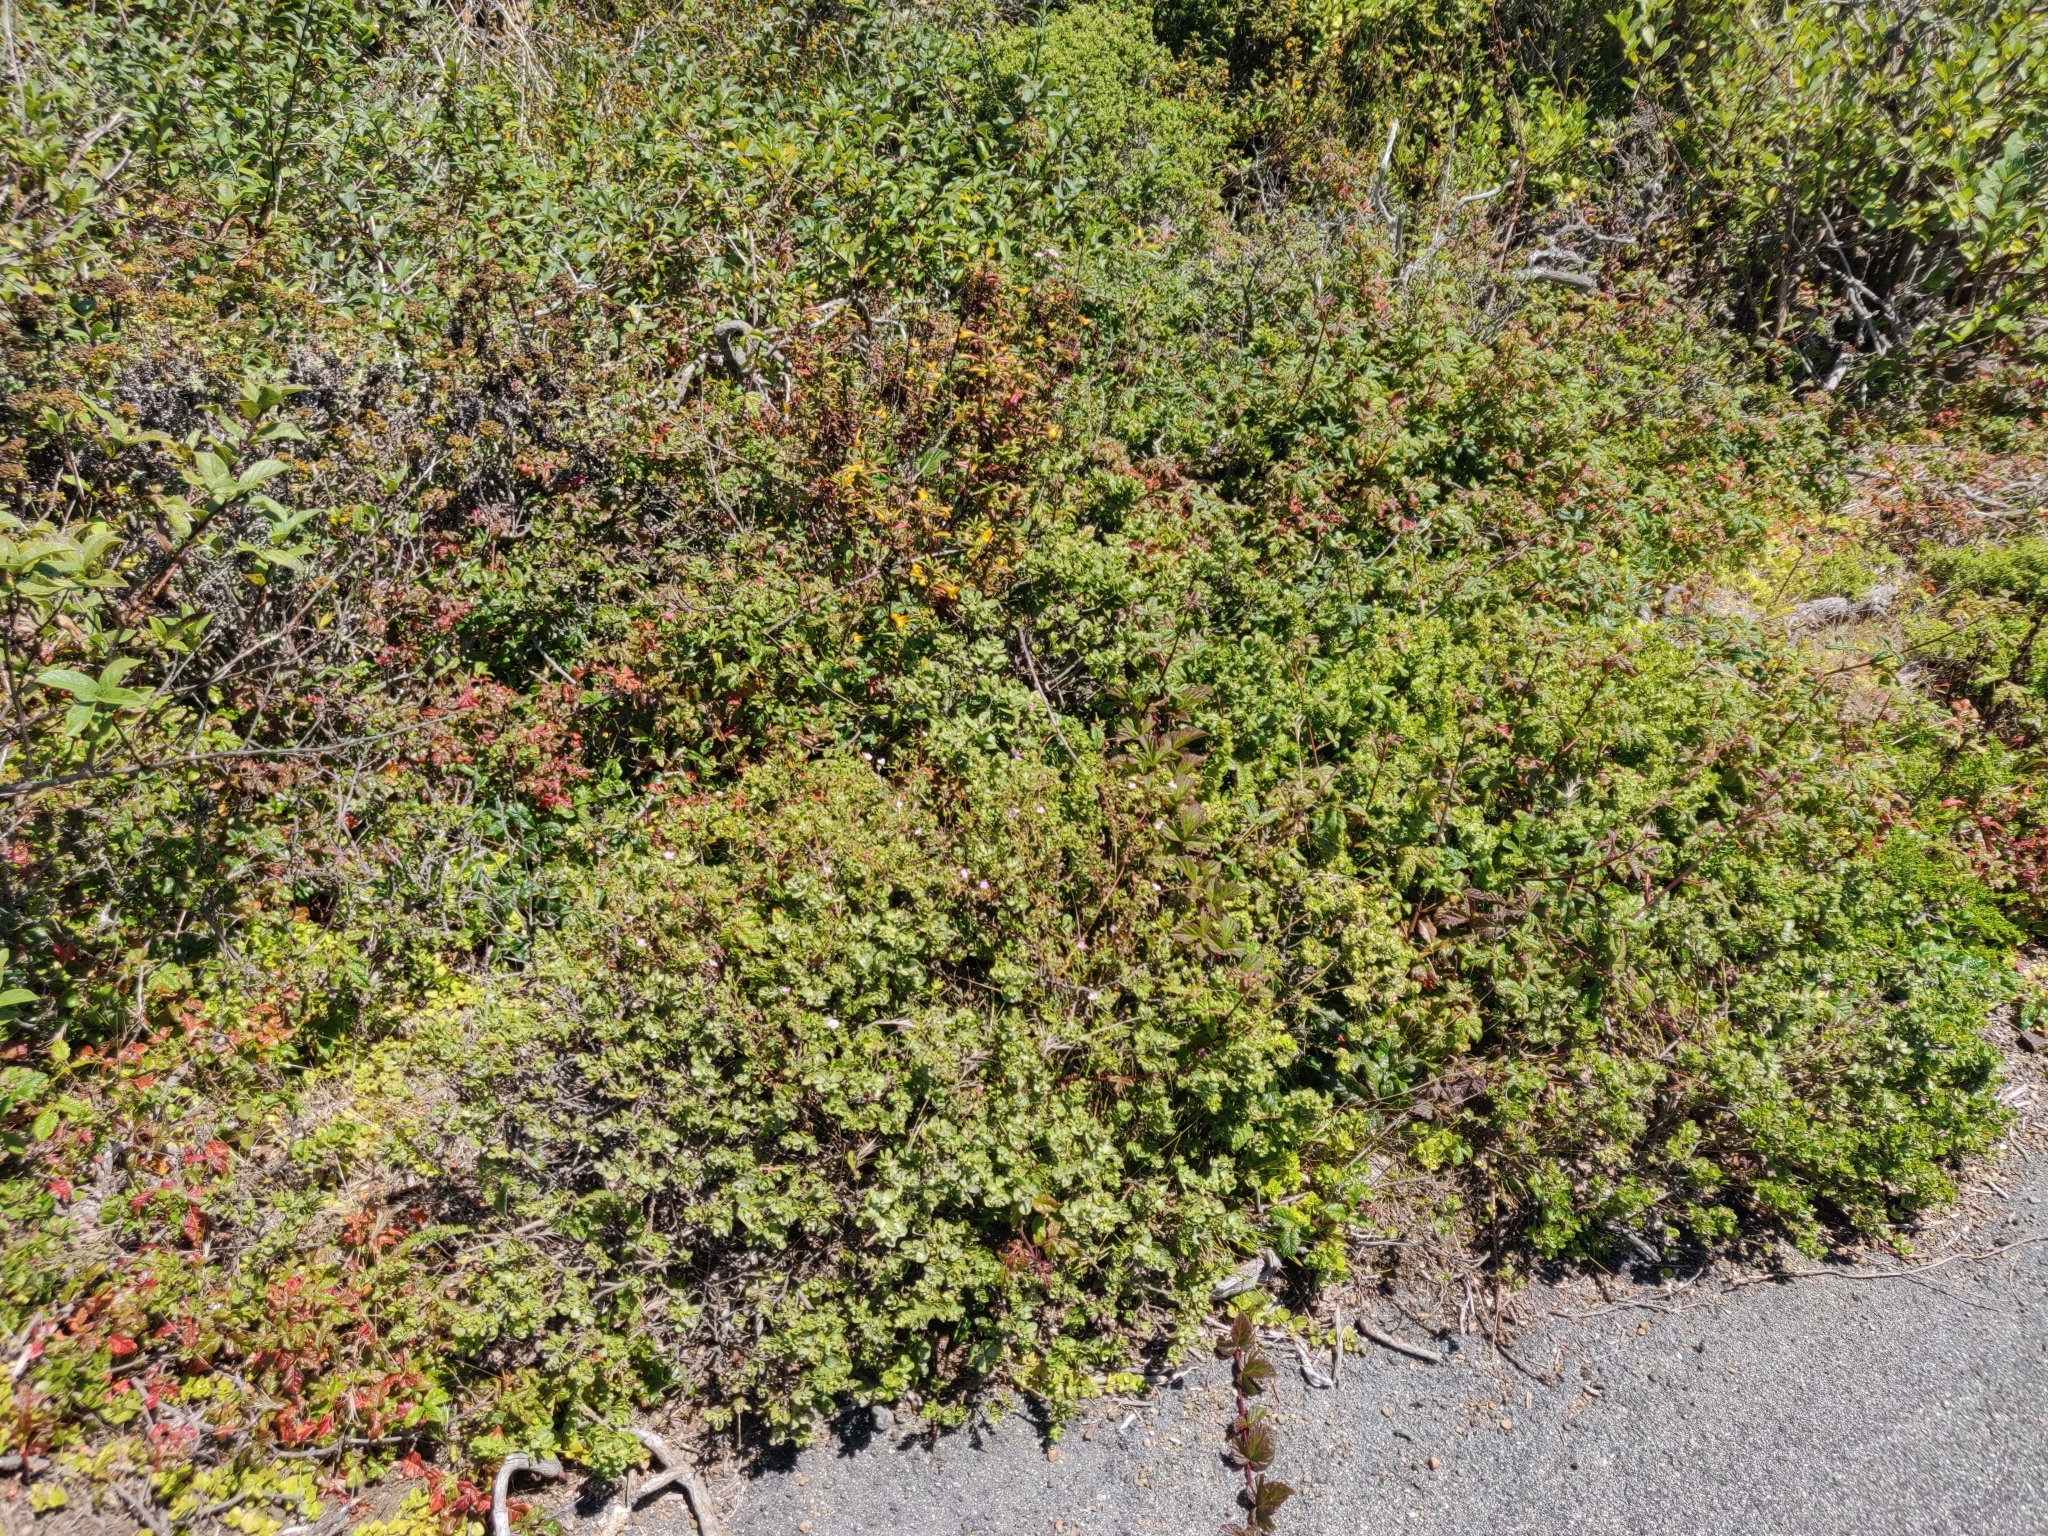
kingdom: Plantae
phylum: Tracheophyta
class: Magnoliopsida
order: Geraniales
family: Geraniaceae
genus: Geranium
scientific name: Geranium carolinianum
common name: Carolina crane's-bill
